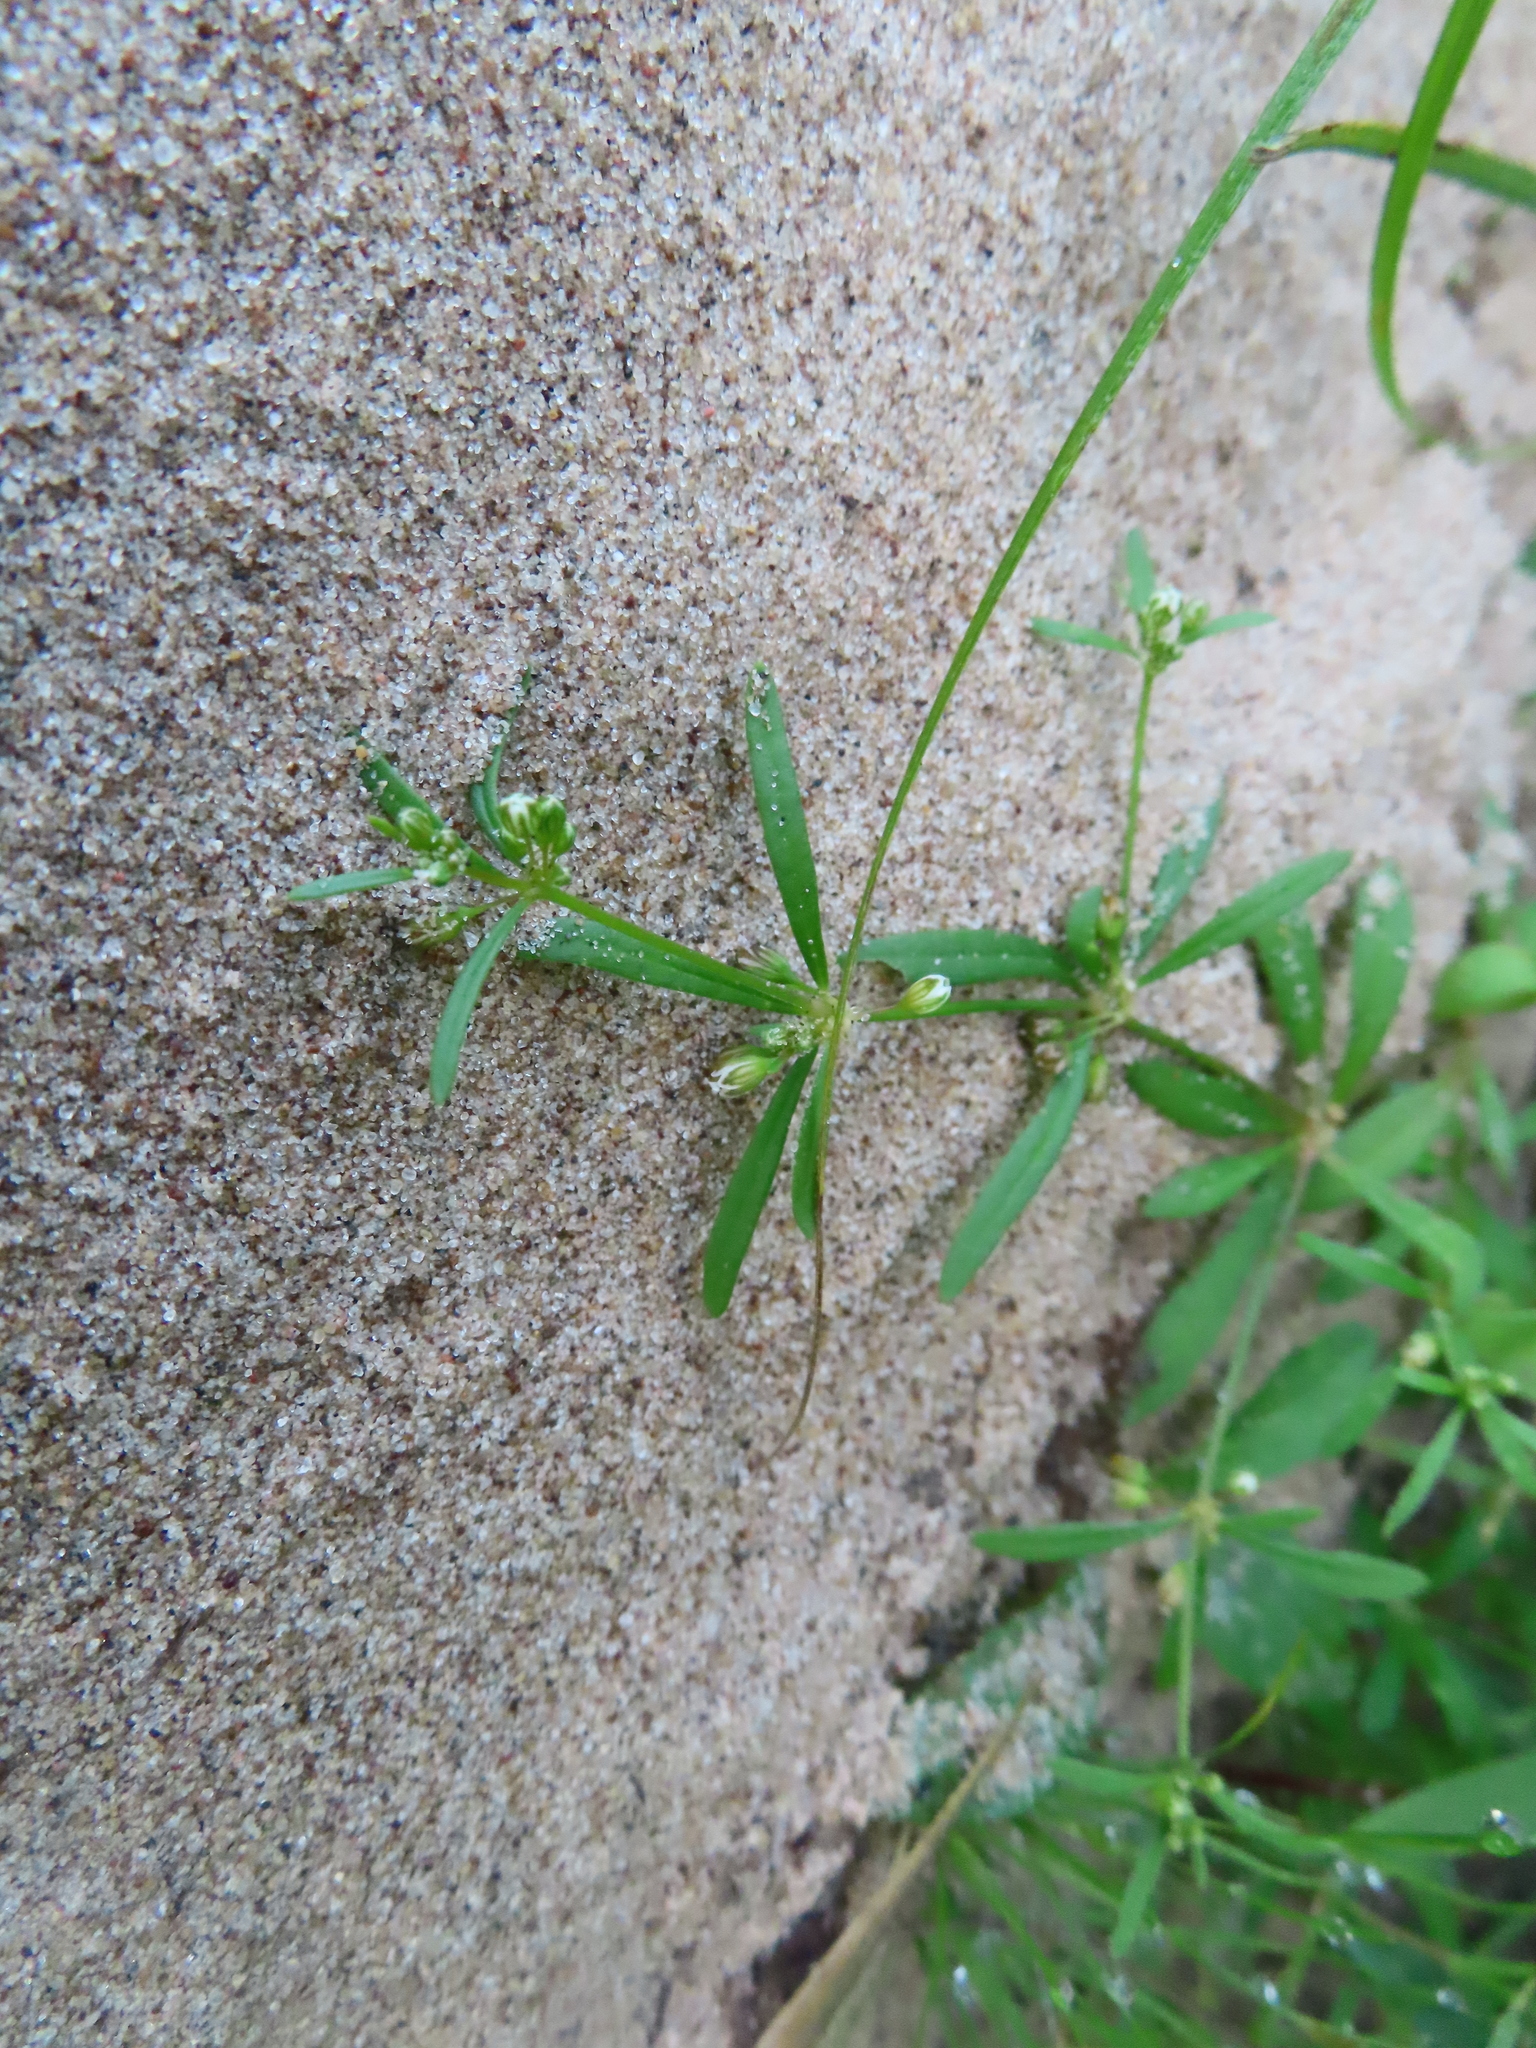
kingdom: Plantae
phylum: Tracheophyta
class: Magnoliopsida
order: Caryophyllales
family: Molluginaceae
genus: Mollugo
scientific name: Mollugo verticillata
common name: Green carpetweed
